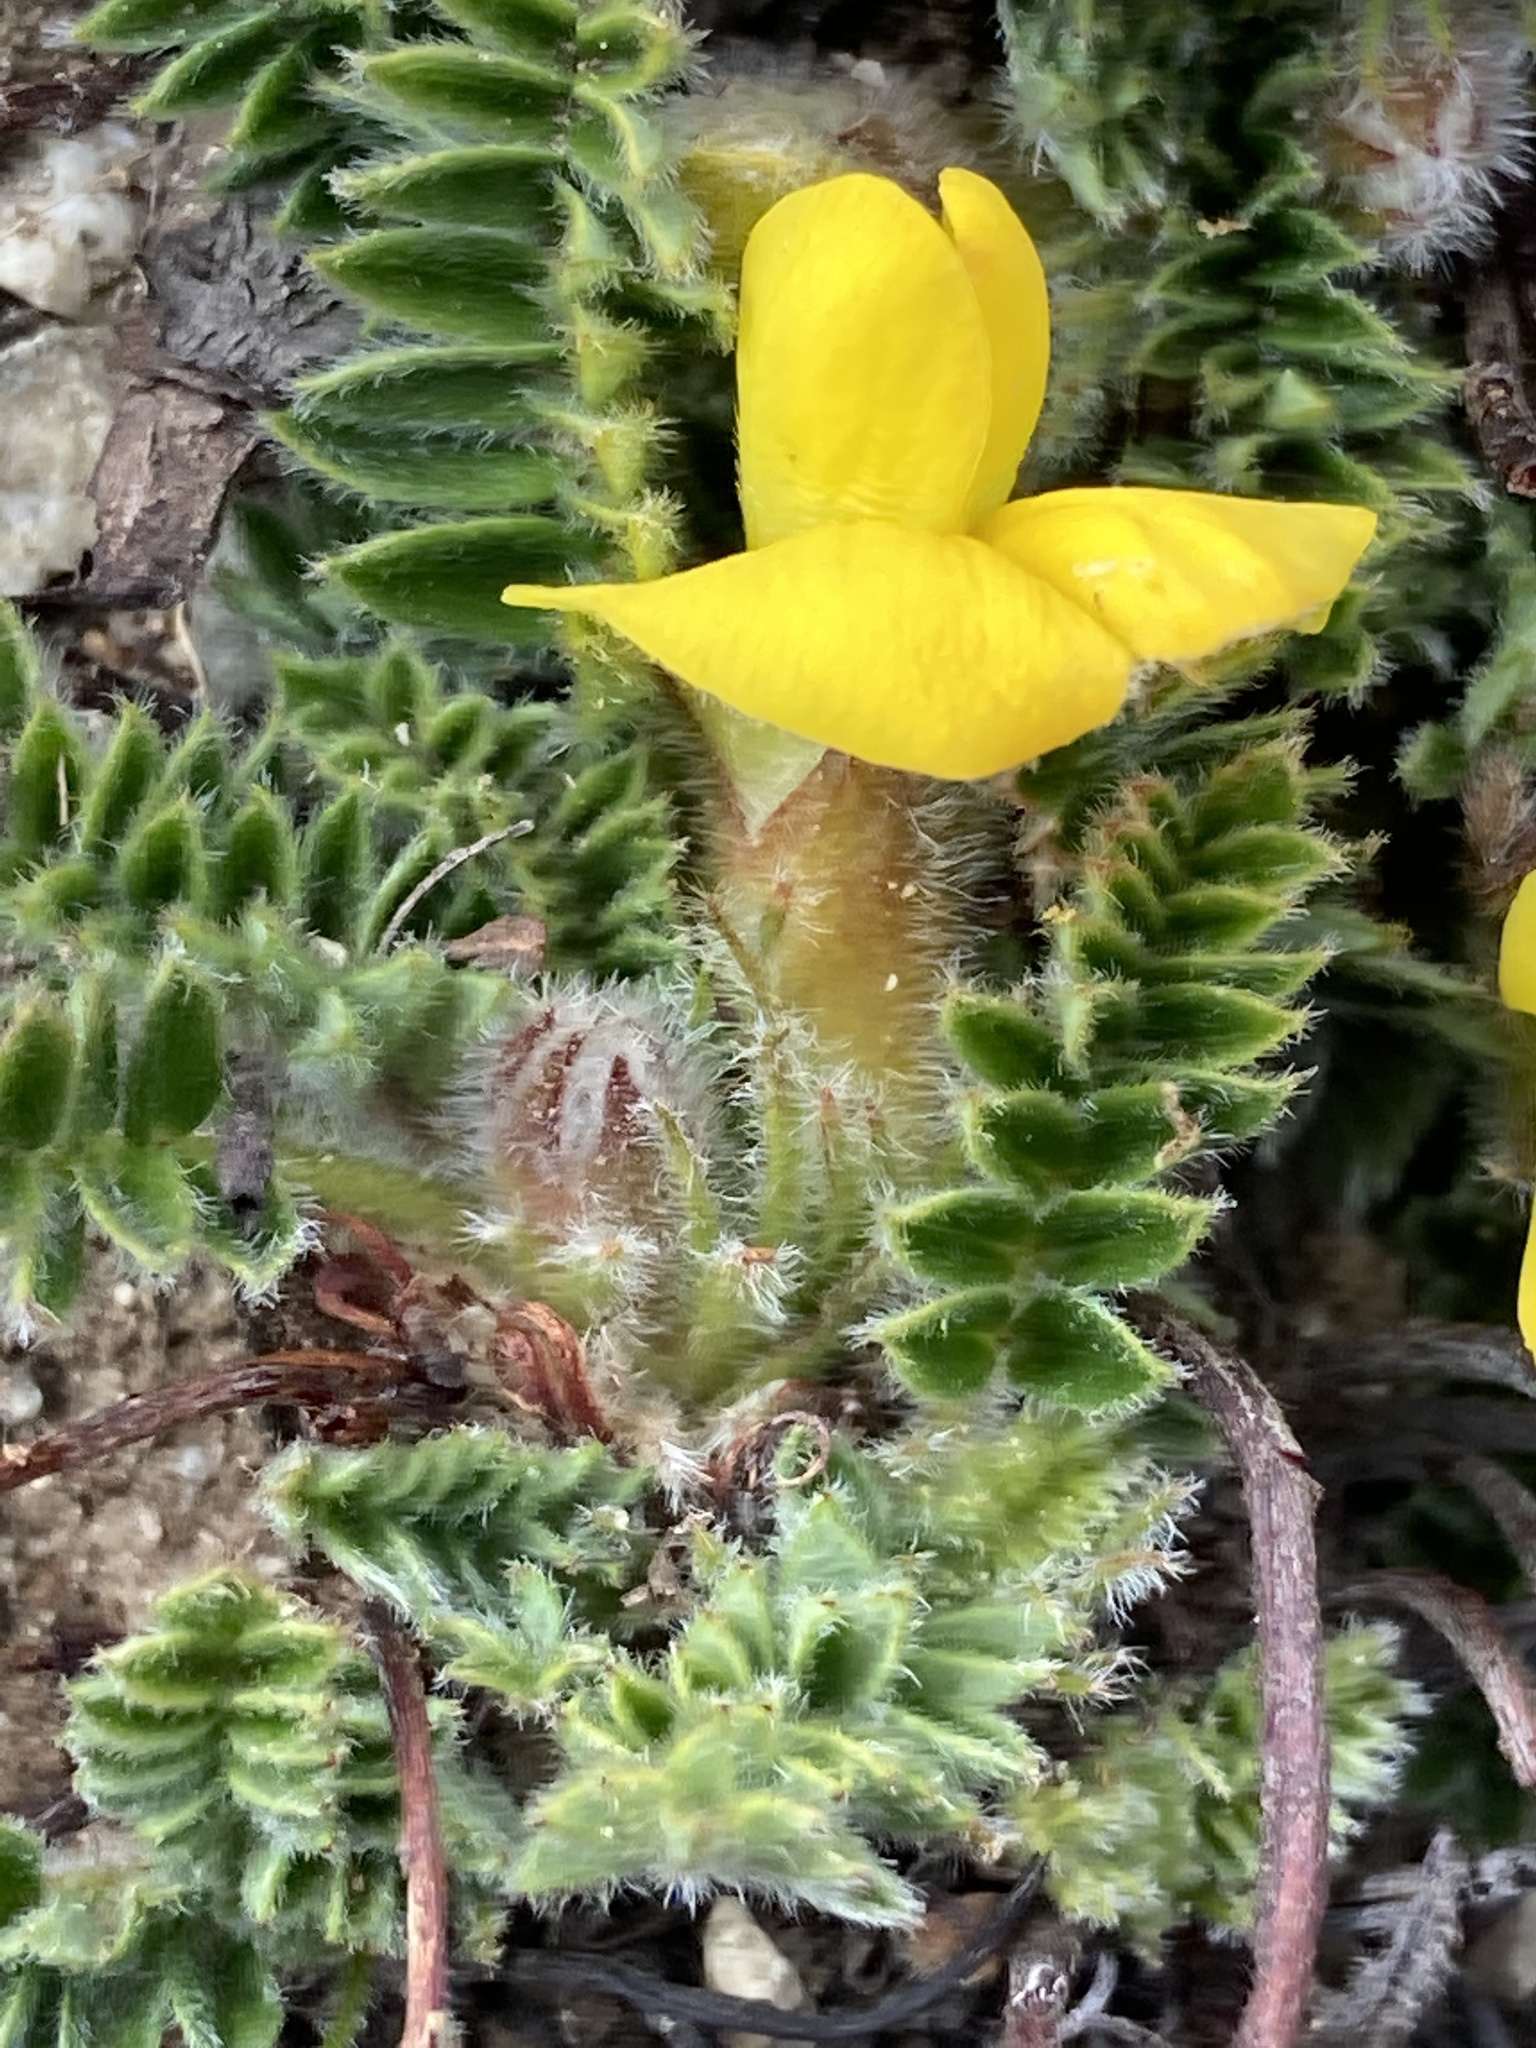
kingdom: Plantae
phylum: Tracheophyta
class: Magnoliopsida
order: Fabales
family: Fabaceae
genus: Chesneya
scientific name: Chesneya nubigena
